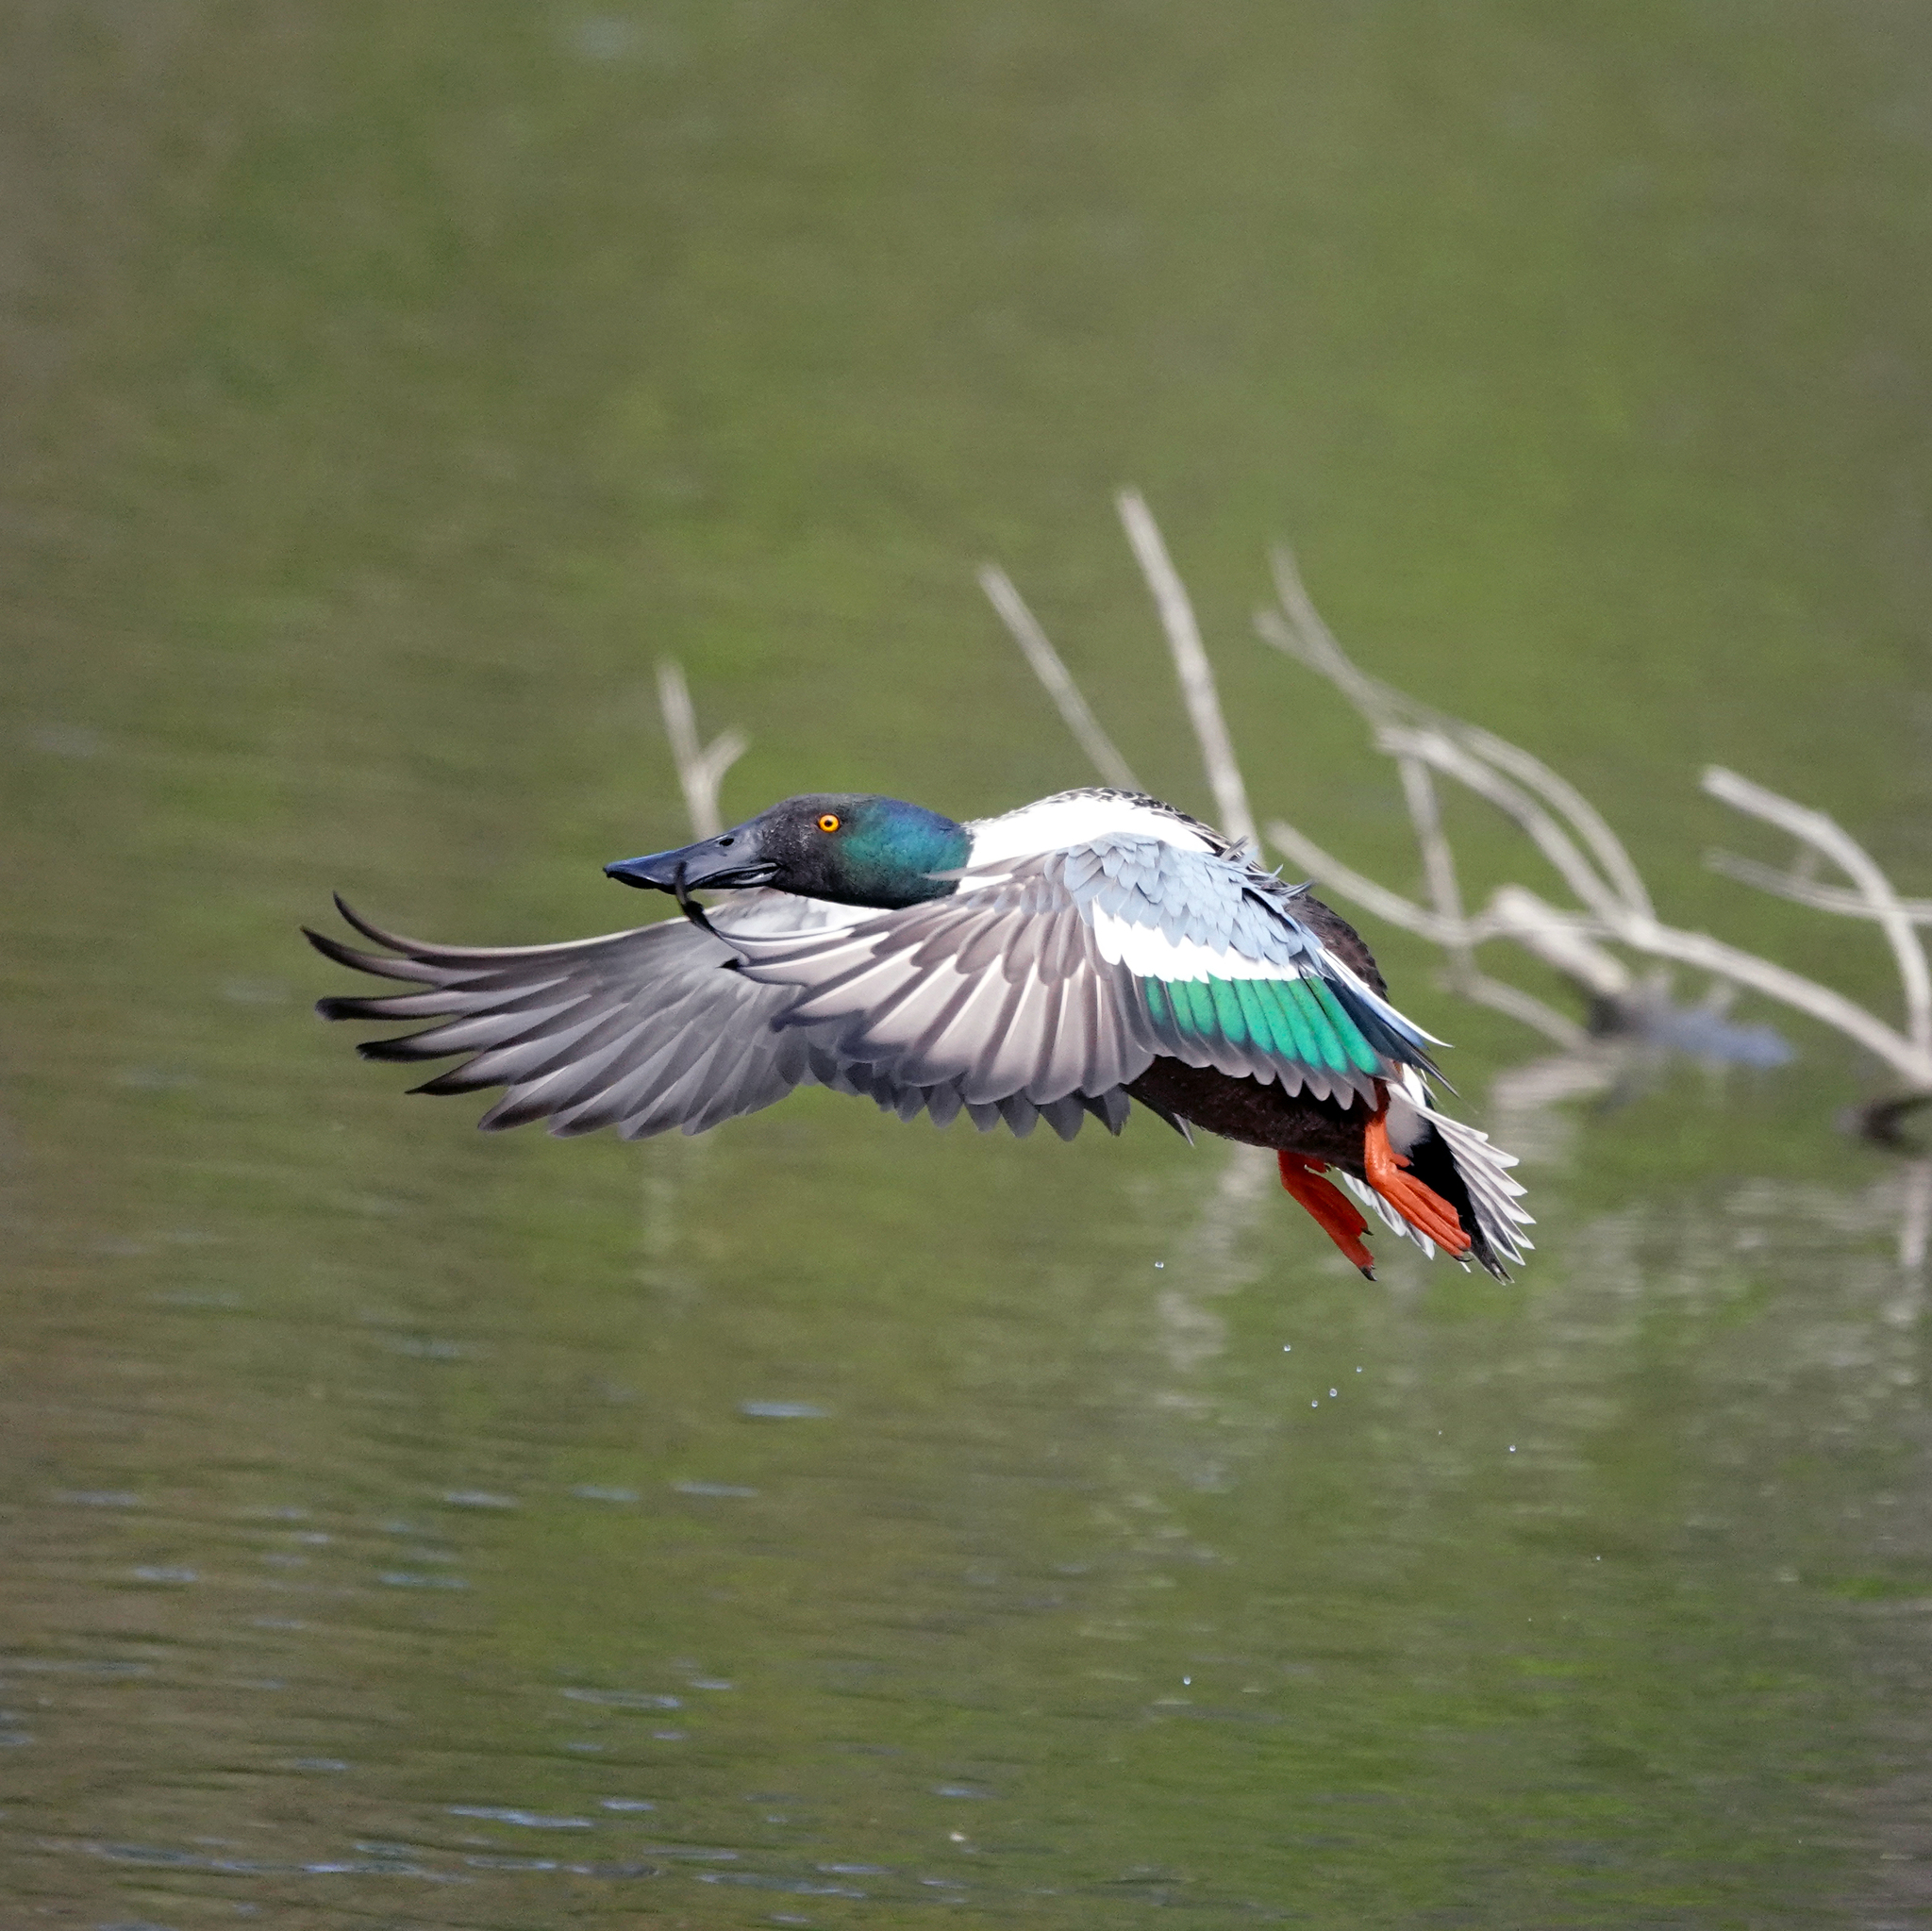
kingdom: Animalia
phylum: Chordata
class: Aves
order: Anseriformes
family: Anatidae
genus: Spatula
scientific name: Spatula clypeata
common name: Northern shoveler
